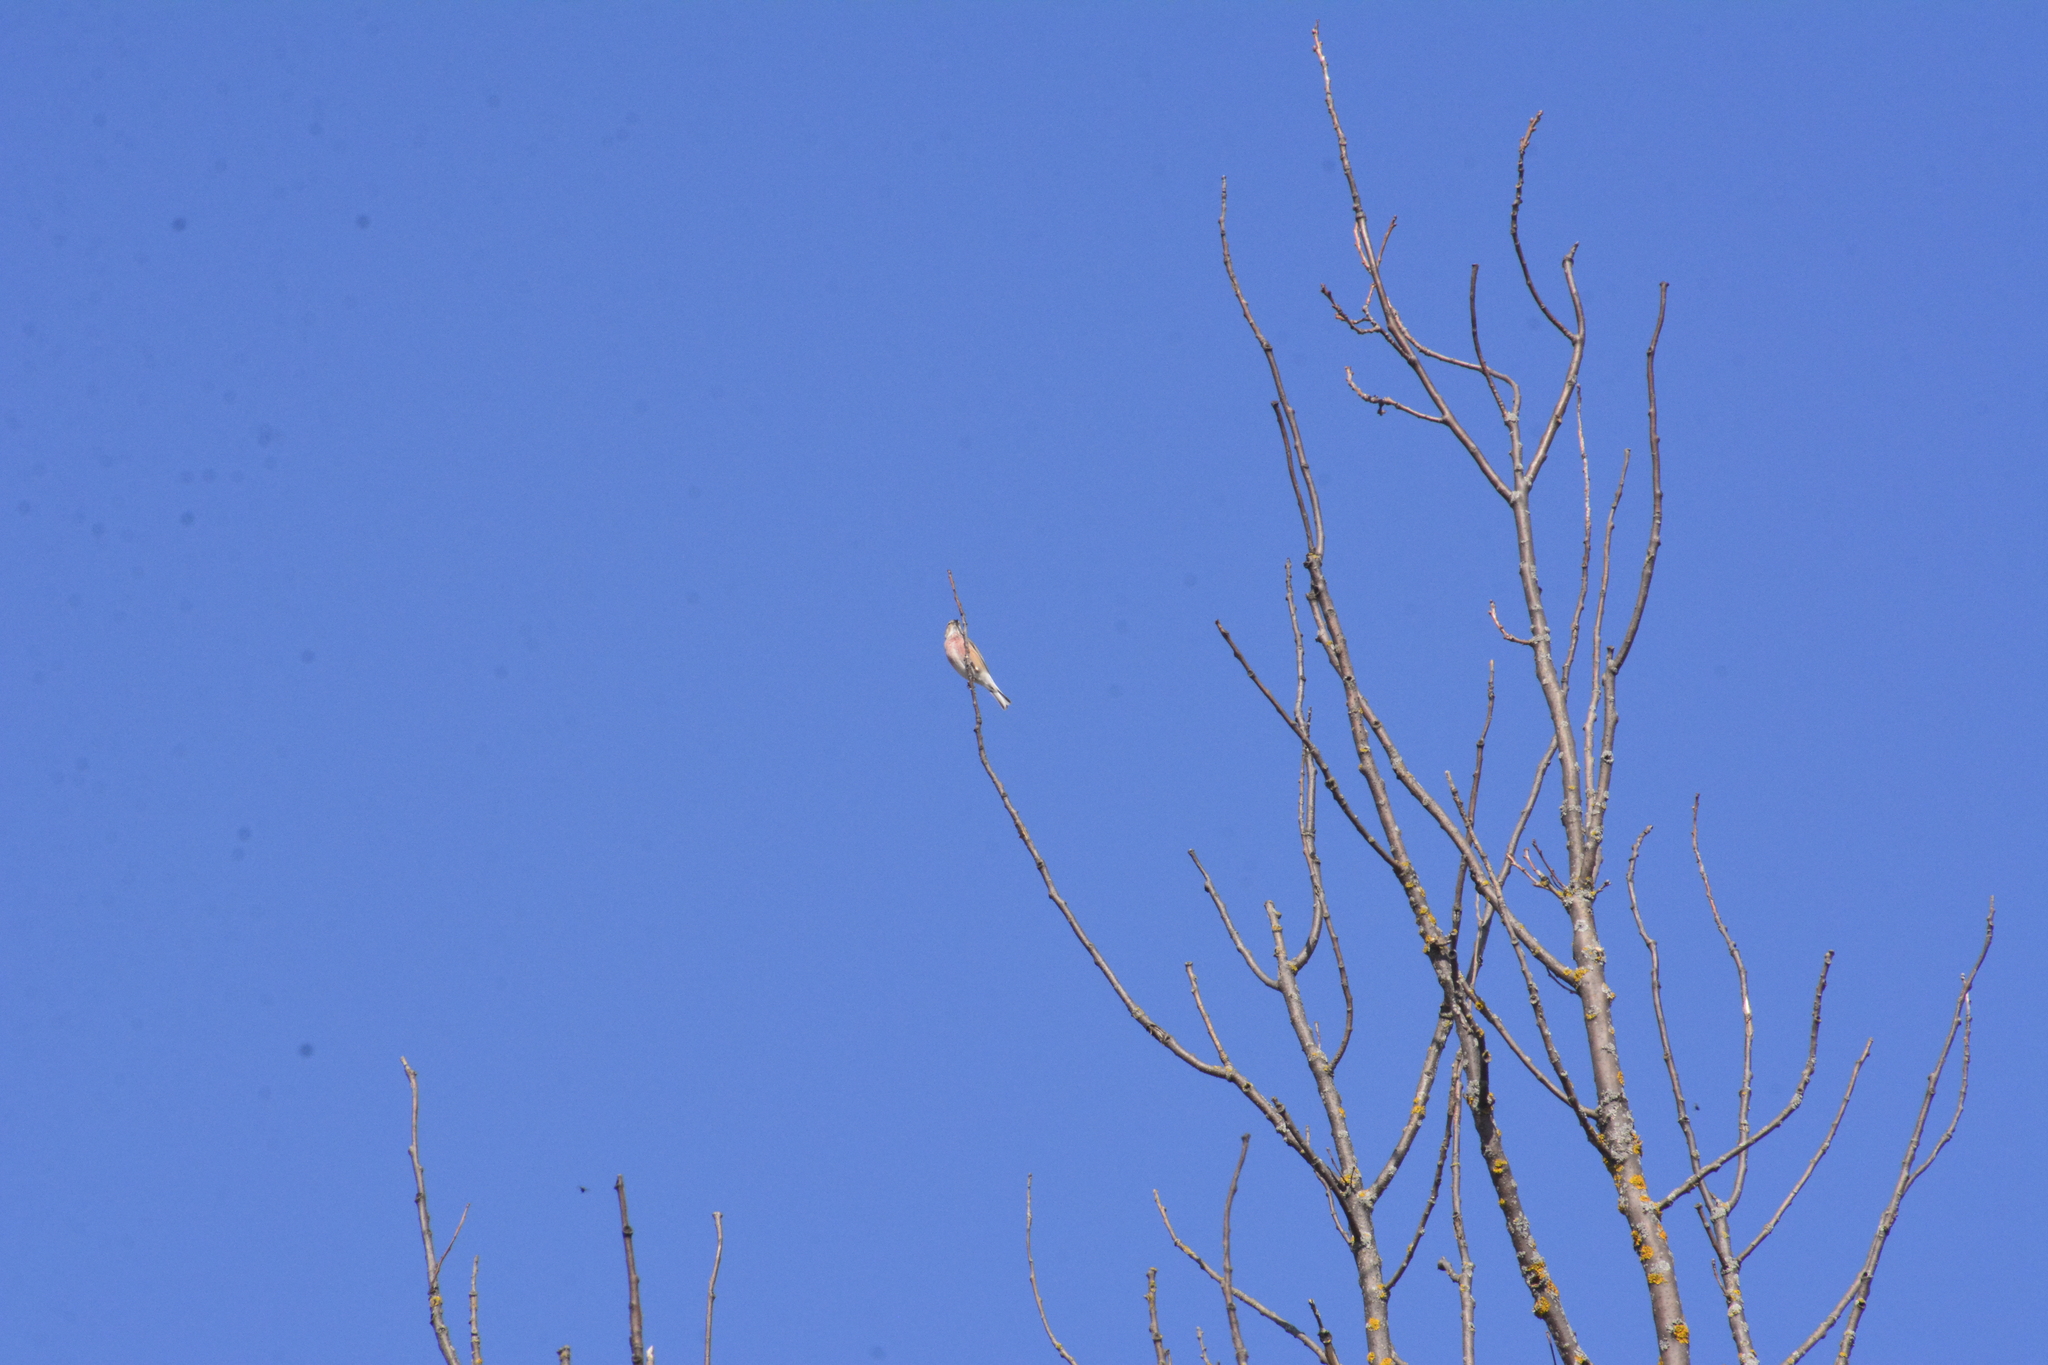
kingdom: Animalia
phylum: Chordata
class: Aves
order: Passeriformes
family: Fringillidae
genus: Linaria
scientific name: Linaria cannabina
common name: Common linnet
